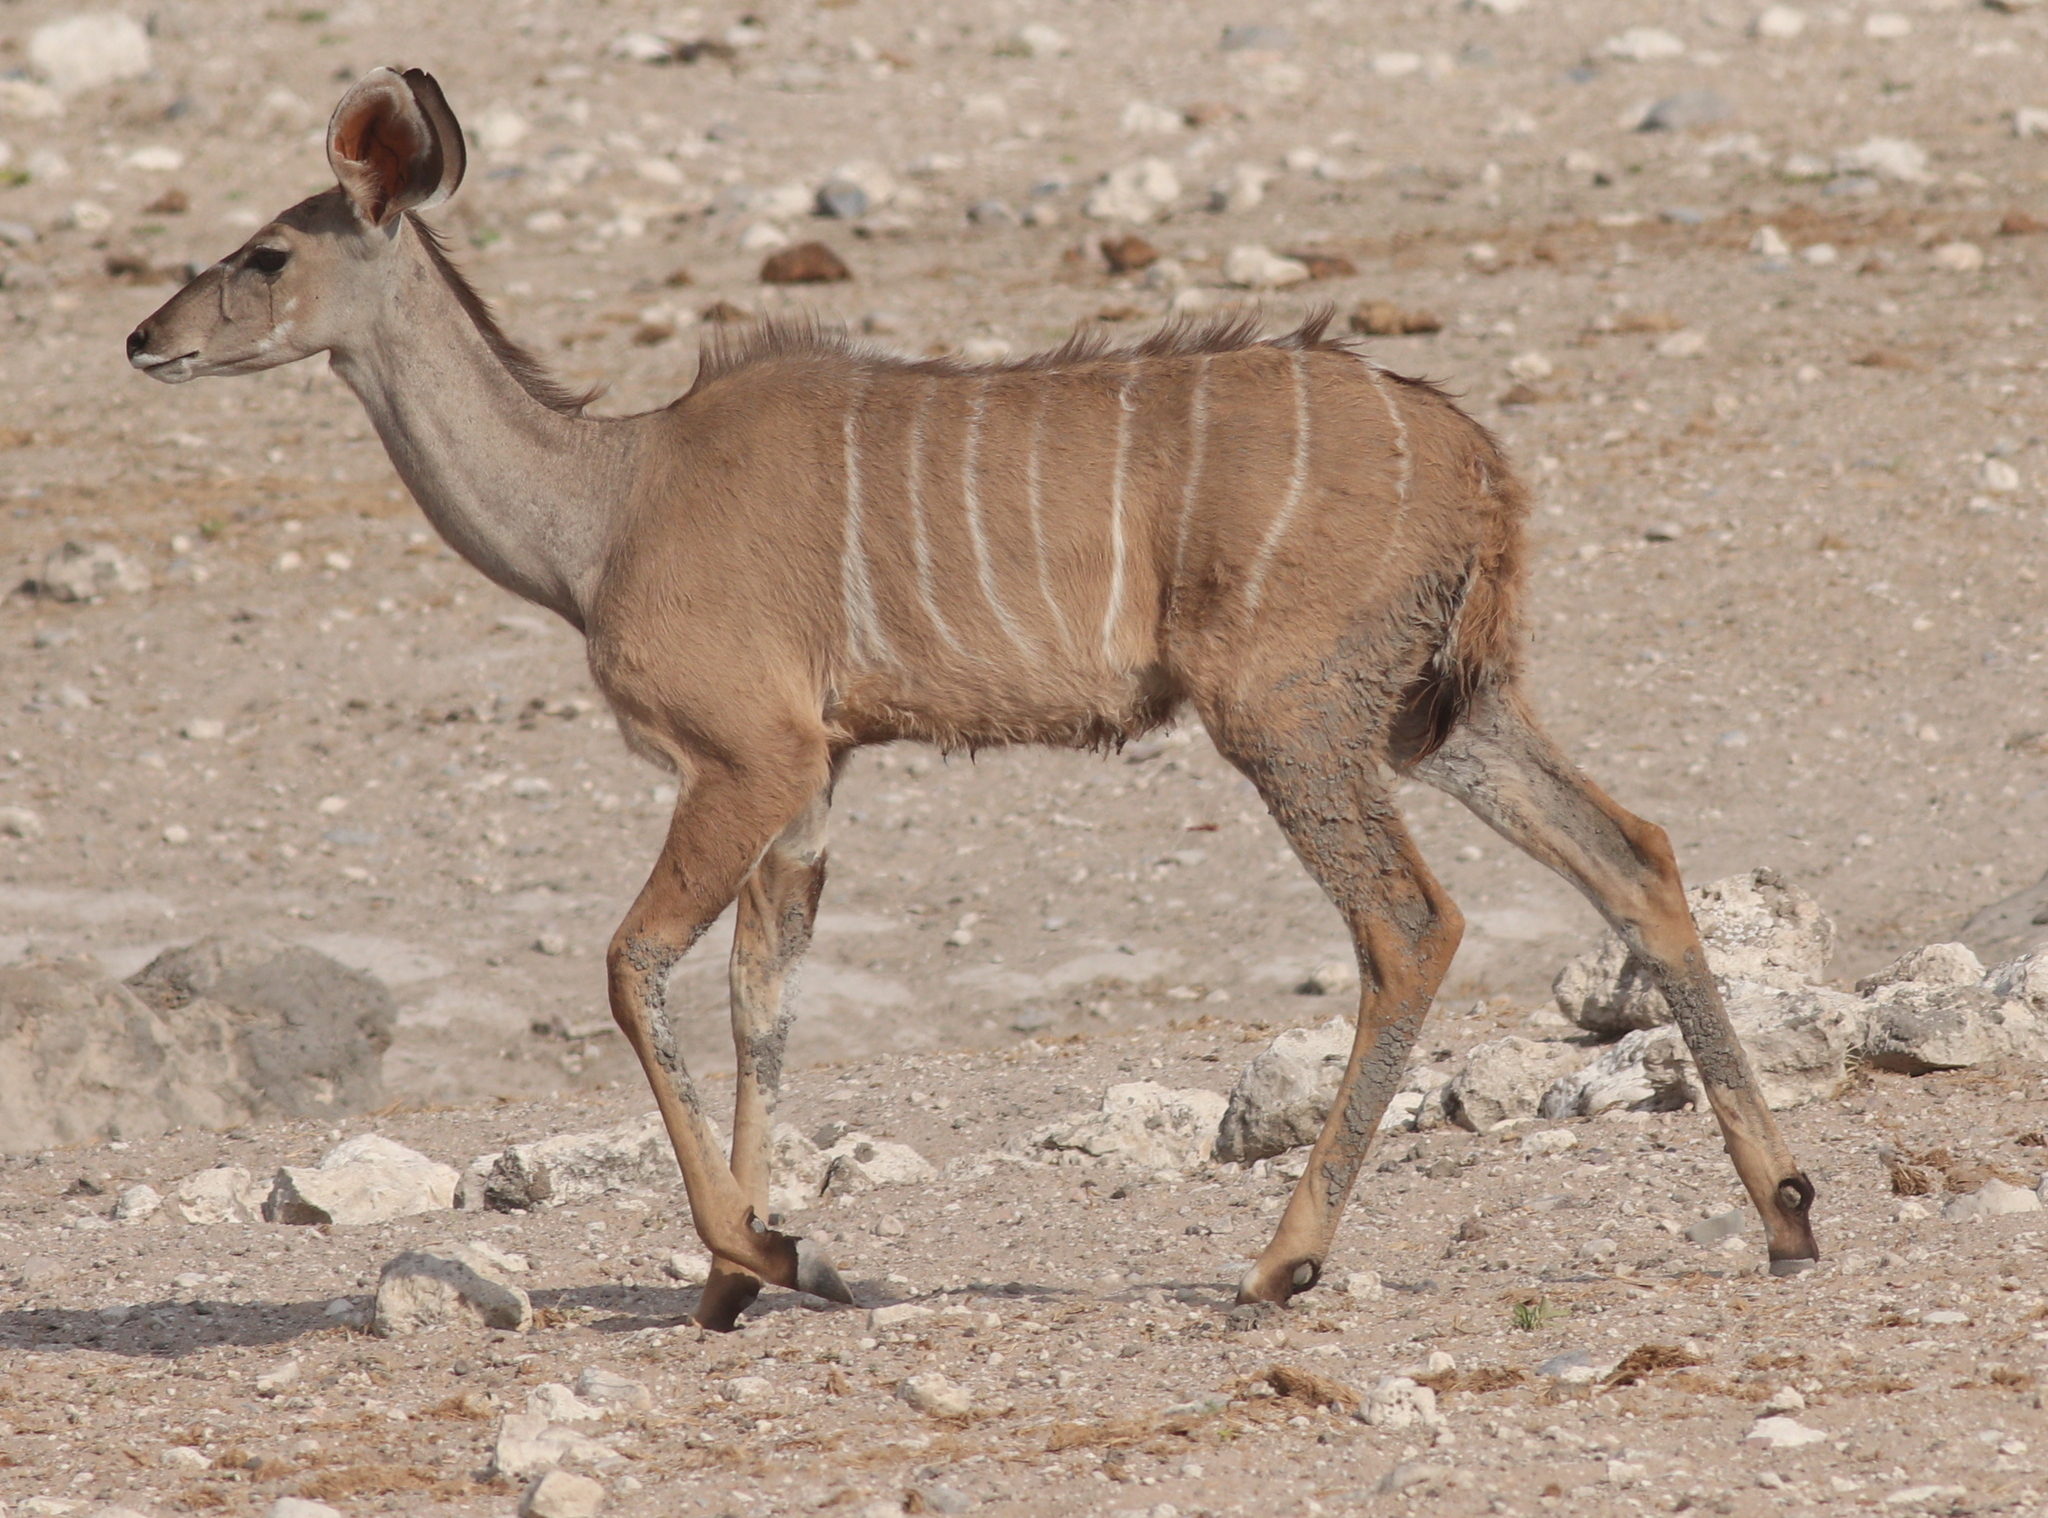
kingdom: Animalia
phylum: Chordata
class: Mammalia
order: Artiodactyla
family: Bovidae
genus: Tragelaphus
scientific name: Tragelaphus strepsiceros
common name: Greater kudu
